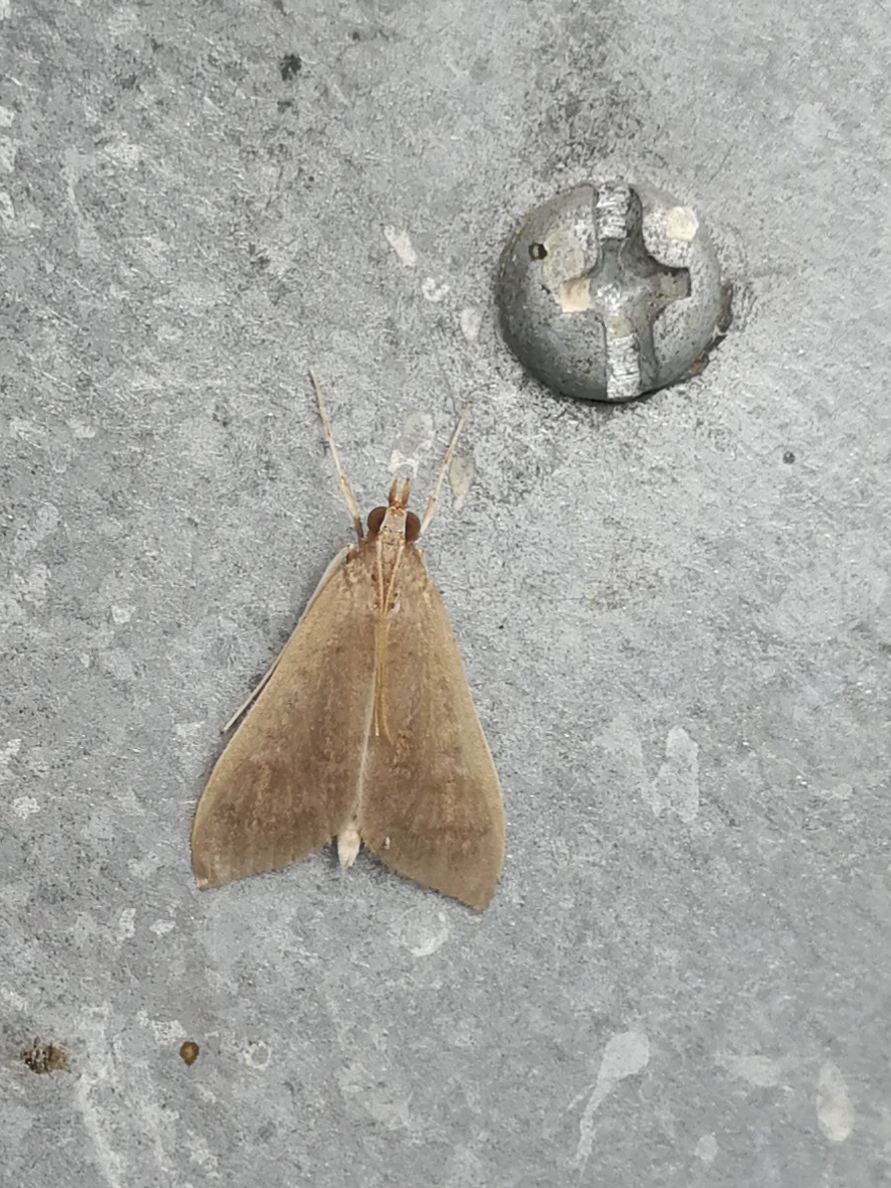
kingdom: Animalia
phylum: Arthropoda
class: Insecta
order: Lepidoptera
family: Crambidae
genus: Mecyna
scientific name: Mecyna asinalis
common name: Coastal pearl
